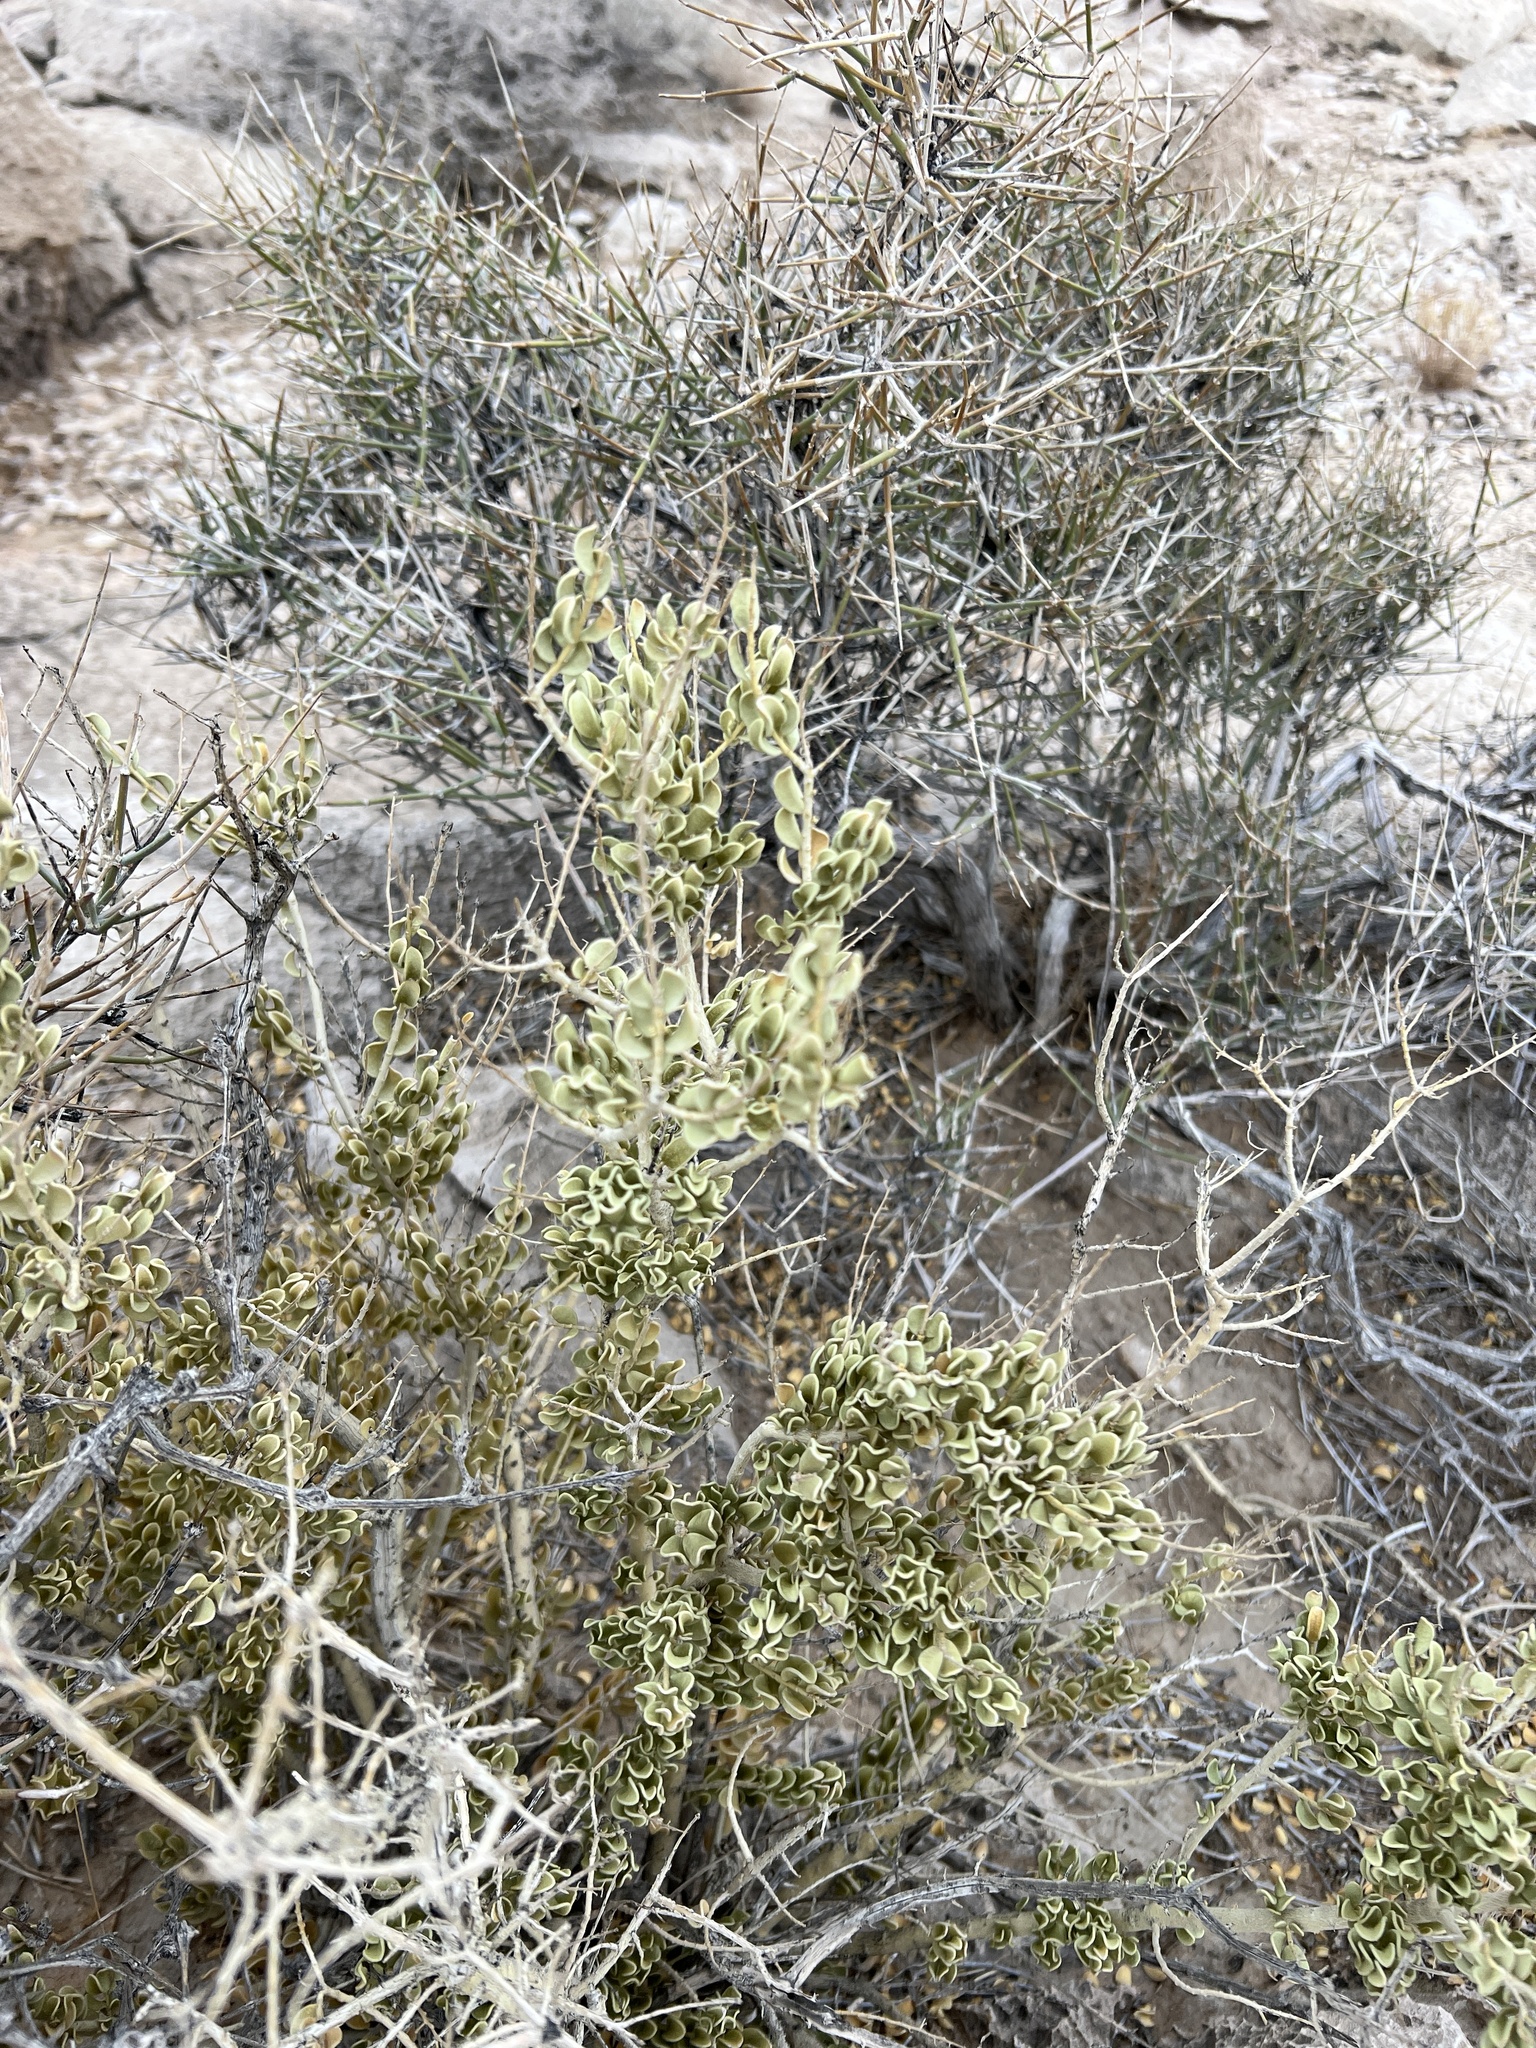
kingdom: Plantae
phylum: Tracheophyta
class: Magnoliopsida
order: Celastrales
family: Celastraceae
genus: Mortonia
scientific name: Mortonia utahensis
